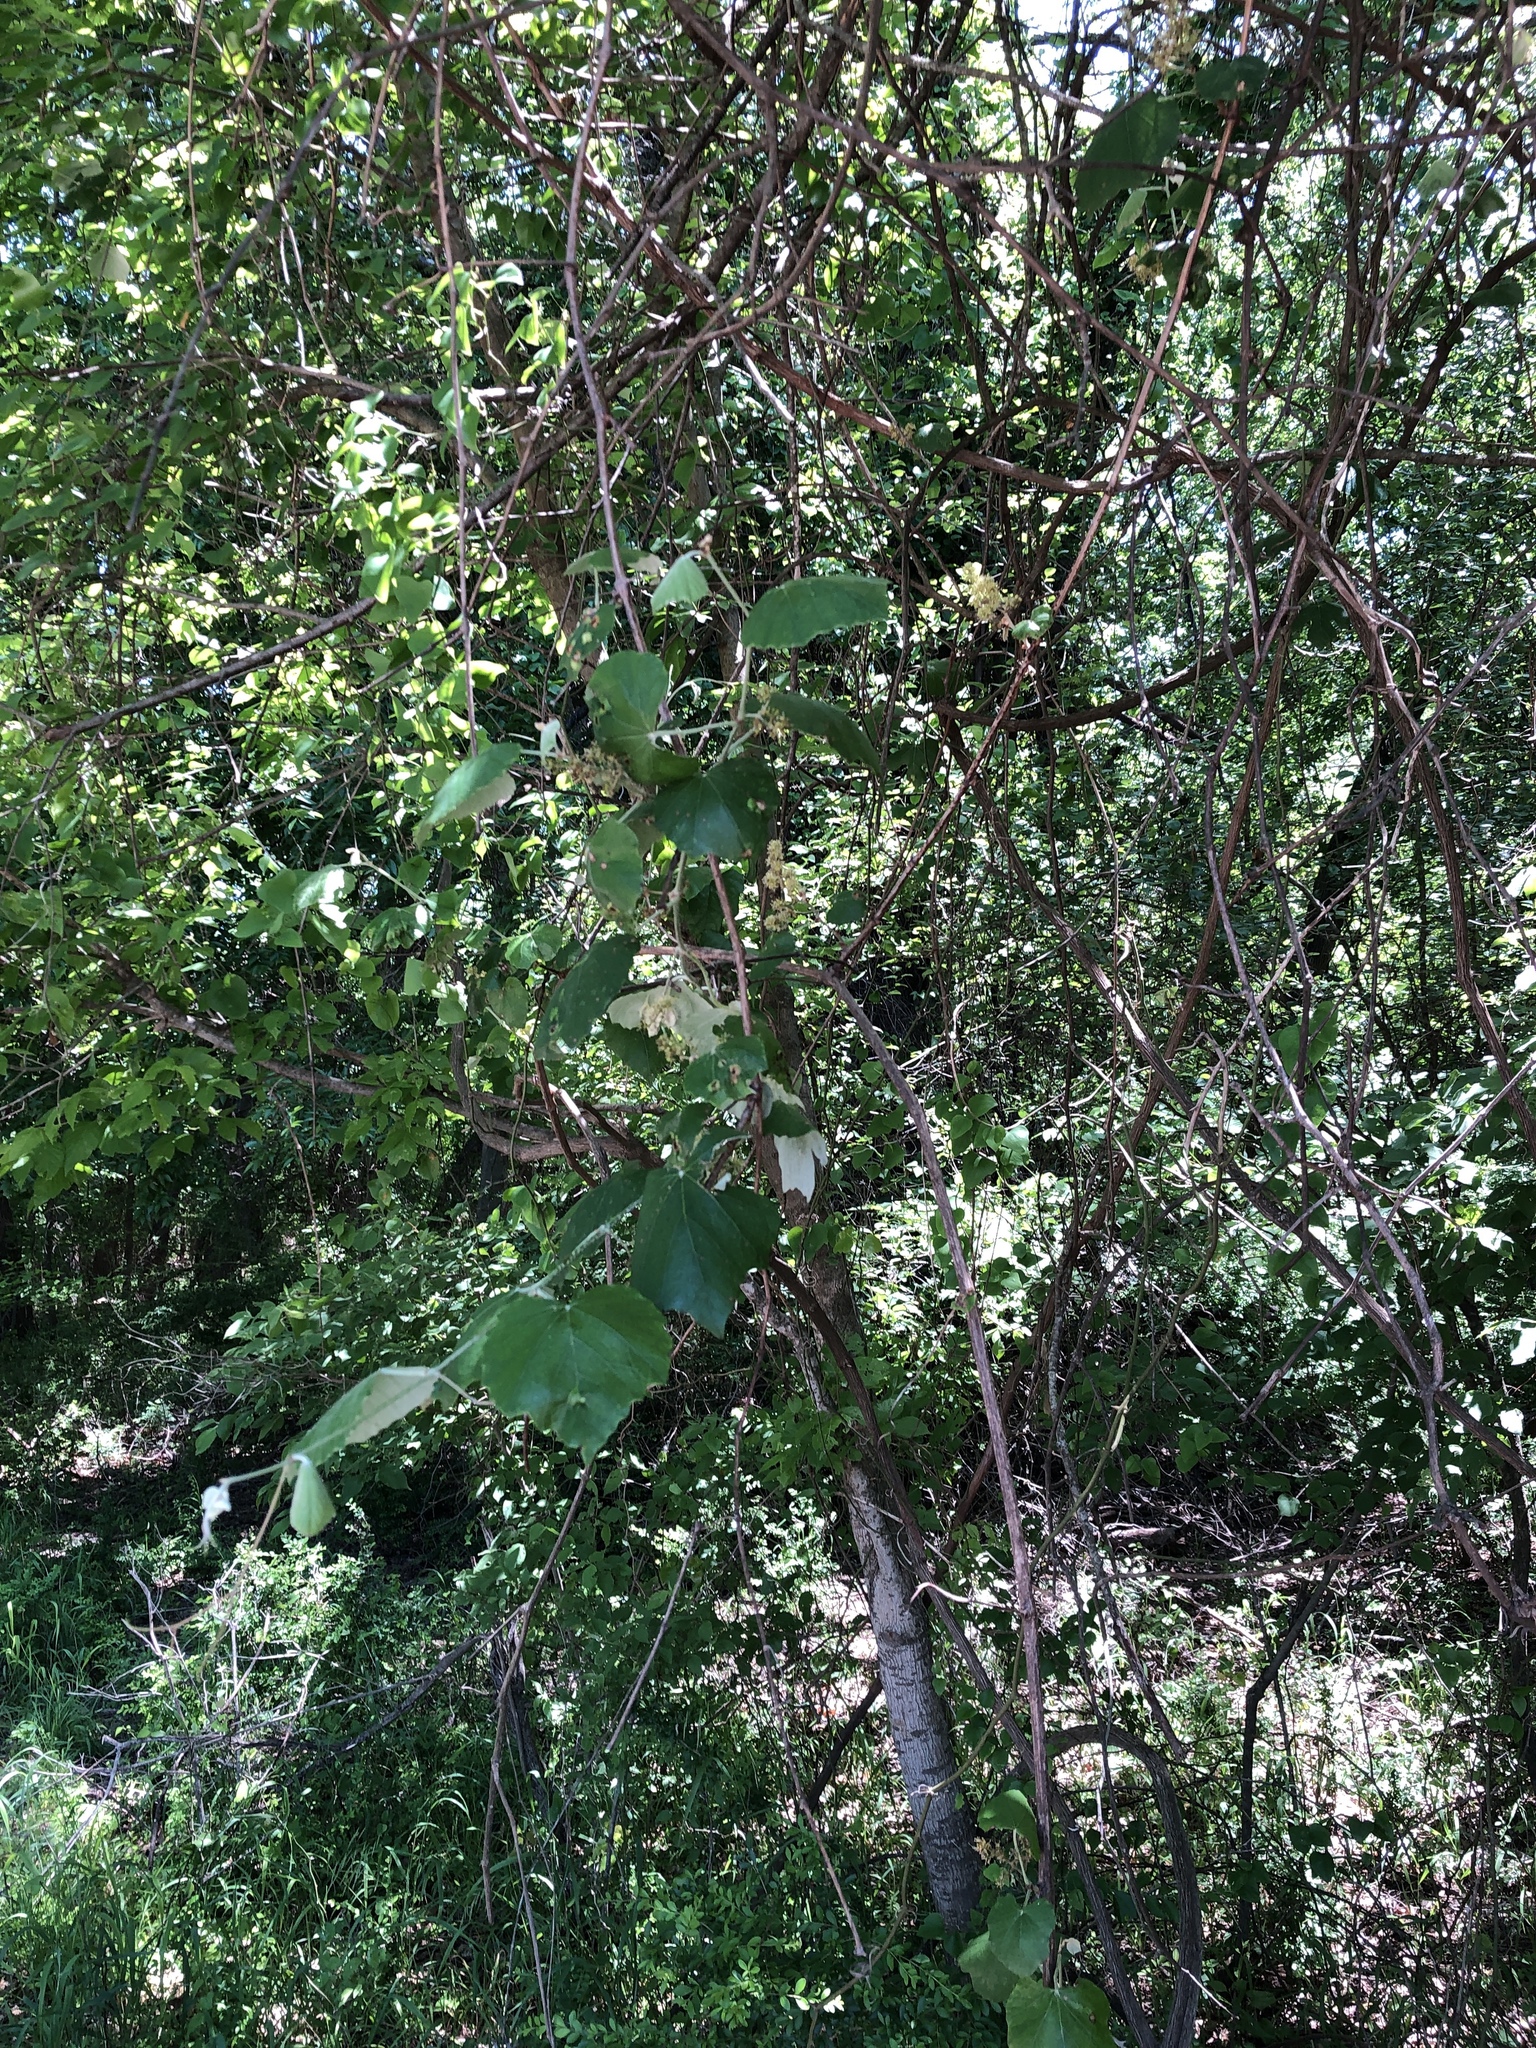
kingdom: Plantae
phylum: Tracheophyta
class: Magnoliopsida
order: Vitales
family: Vitaceae
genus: Vitis
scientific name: Vitis mustangensis
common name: Mustang grape
